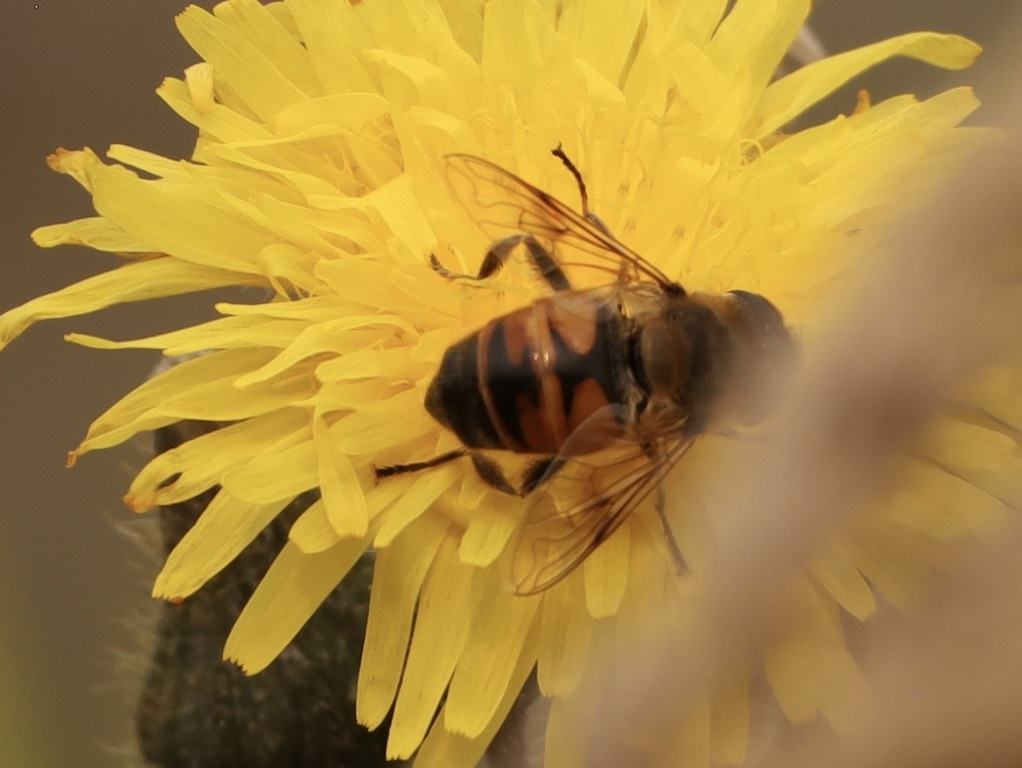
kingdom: Animalia
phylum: Arthropoda
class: Insecta
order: Diptera
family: Syrphidae
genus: Eristalis
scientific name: Eristalis tenax
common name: Drone fly
